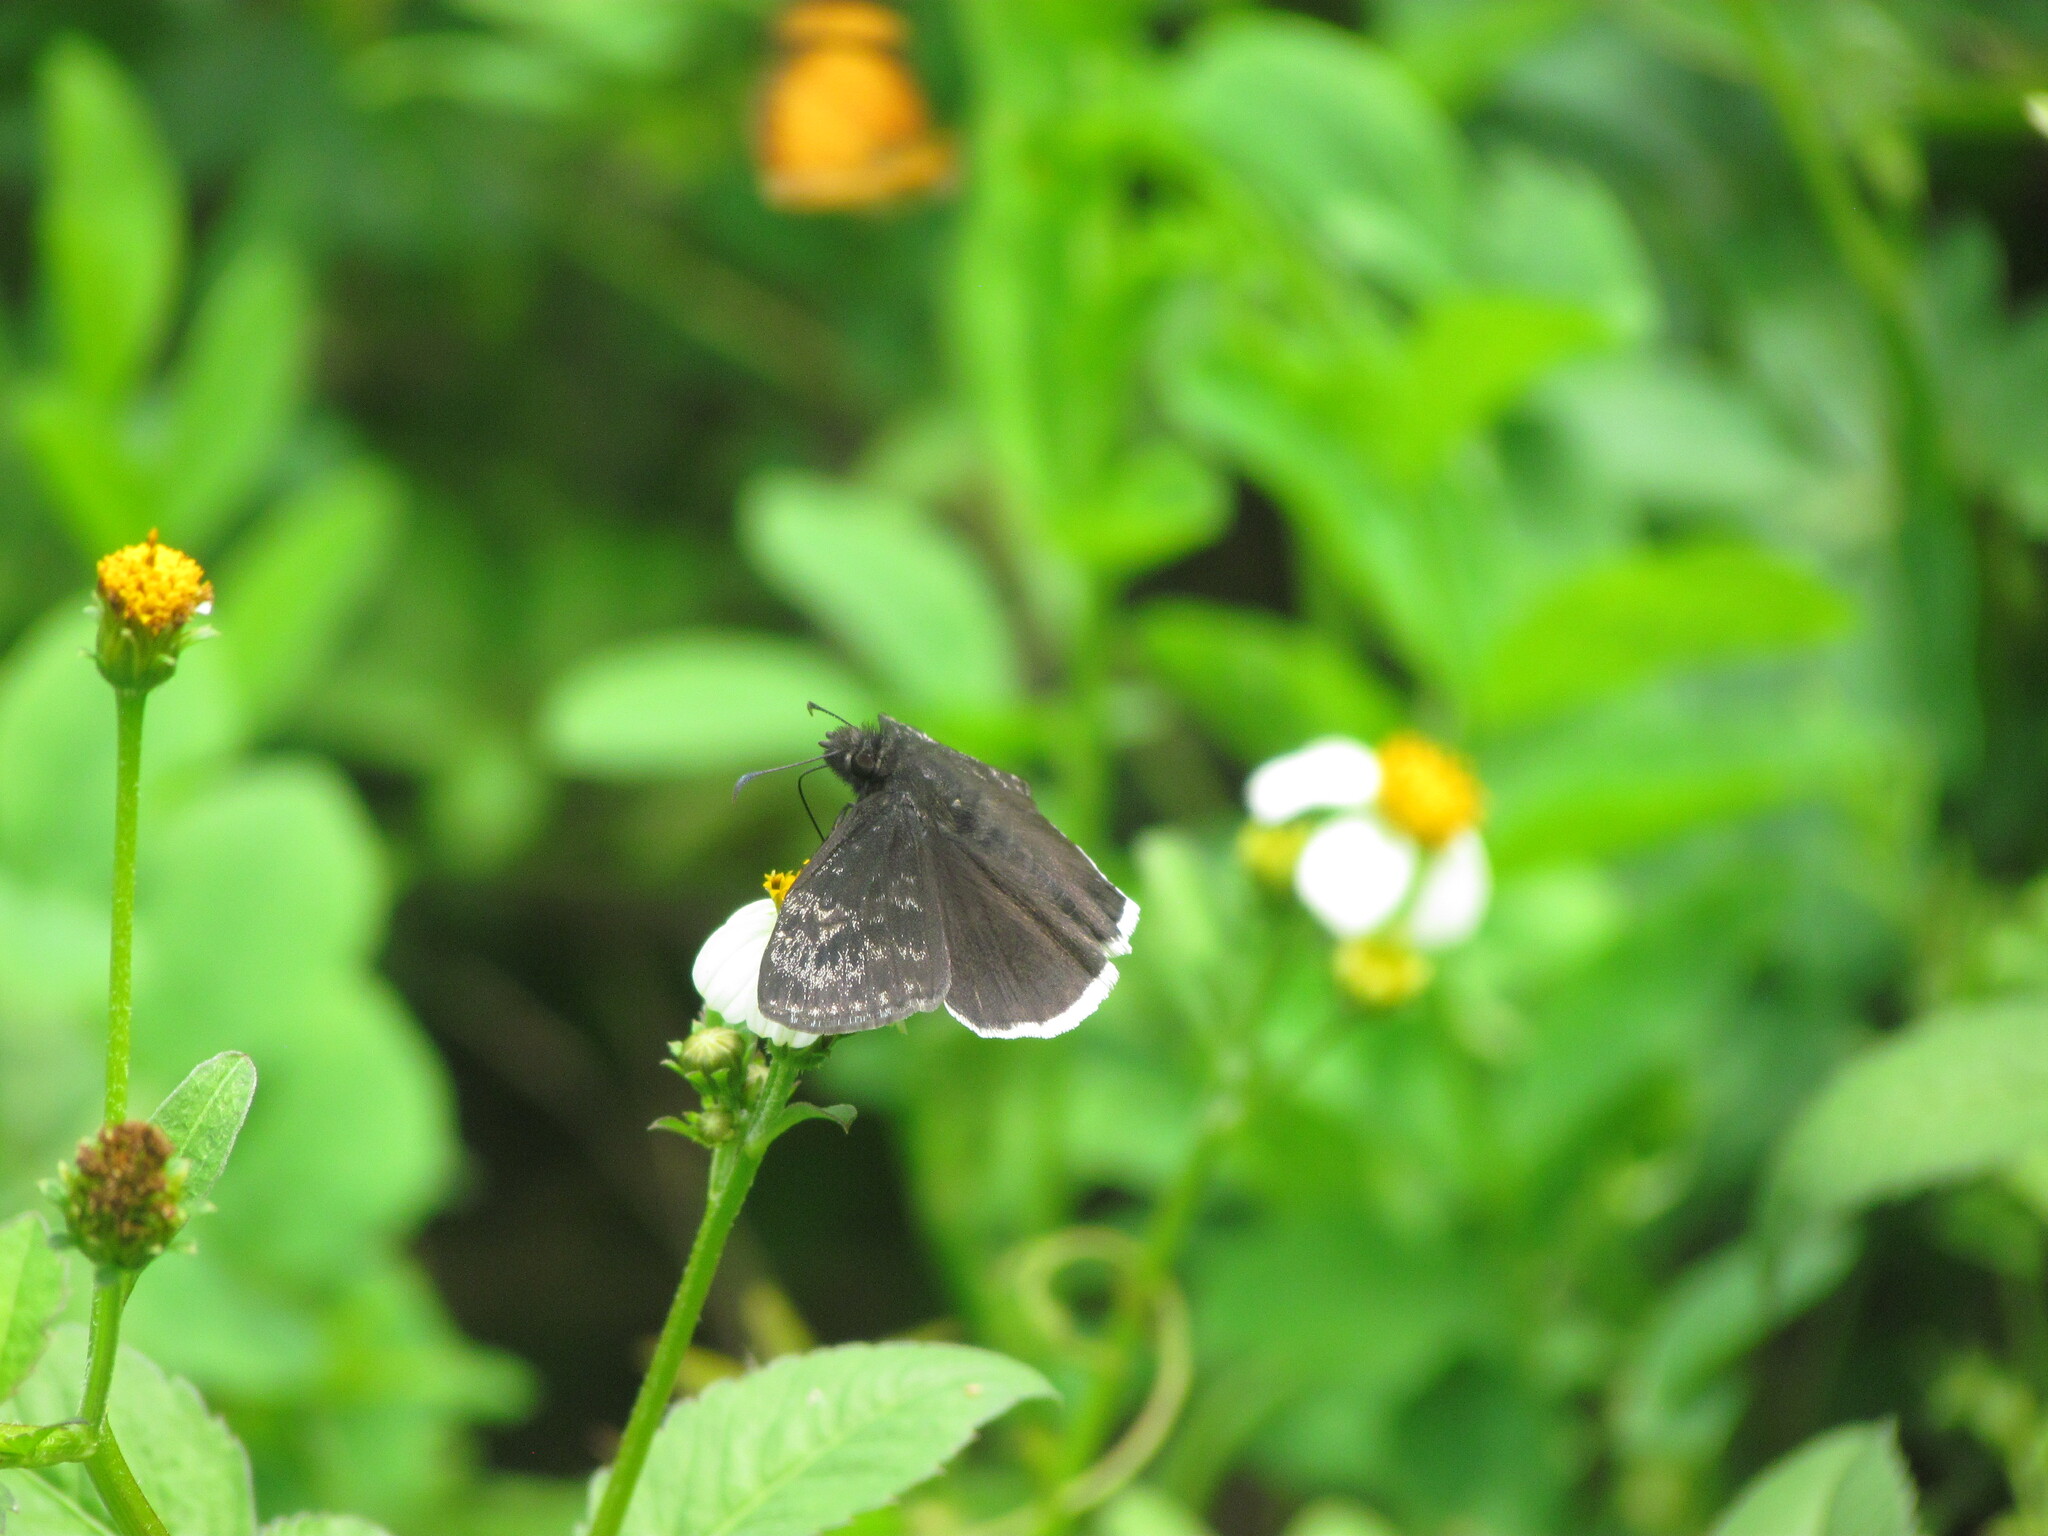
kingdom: Animalia
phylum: Arthropoda
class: Insecta
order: Lepidoptera
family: Hesperiidae
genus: Erynnis
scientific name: Erynnis funeralis
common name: Funereal duskywing
